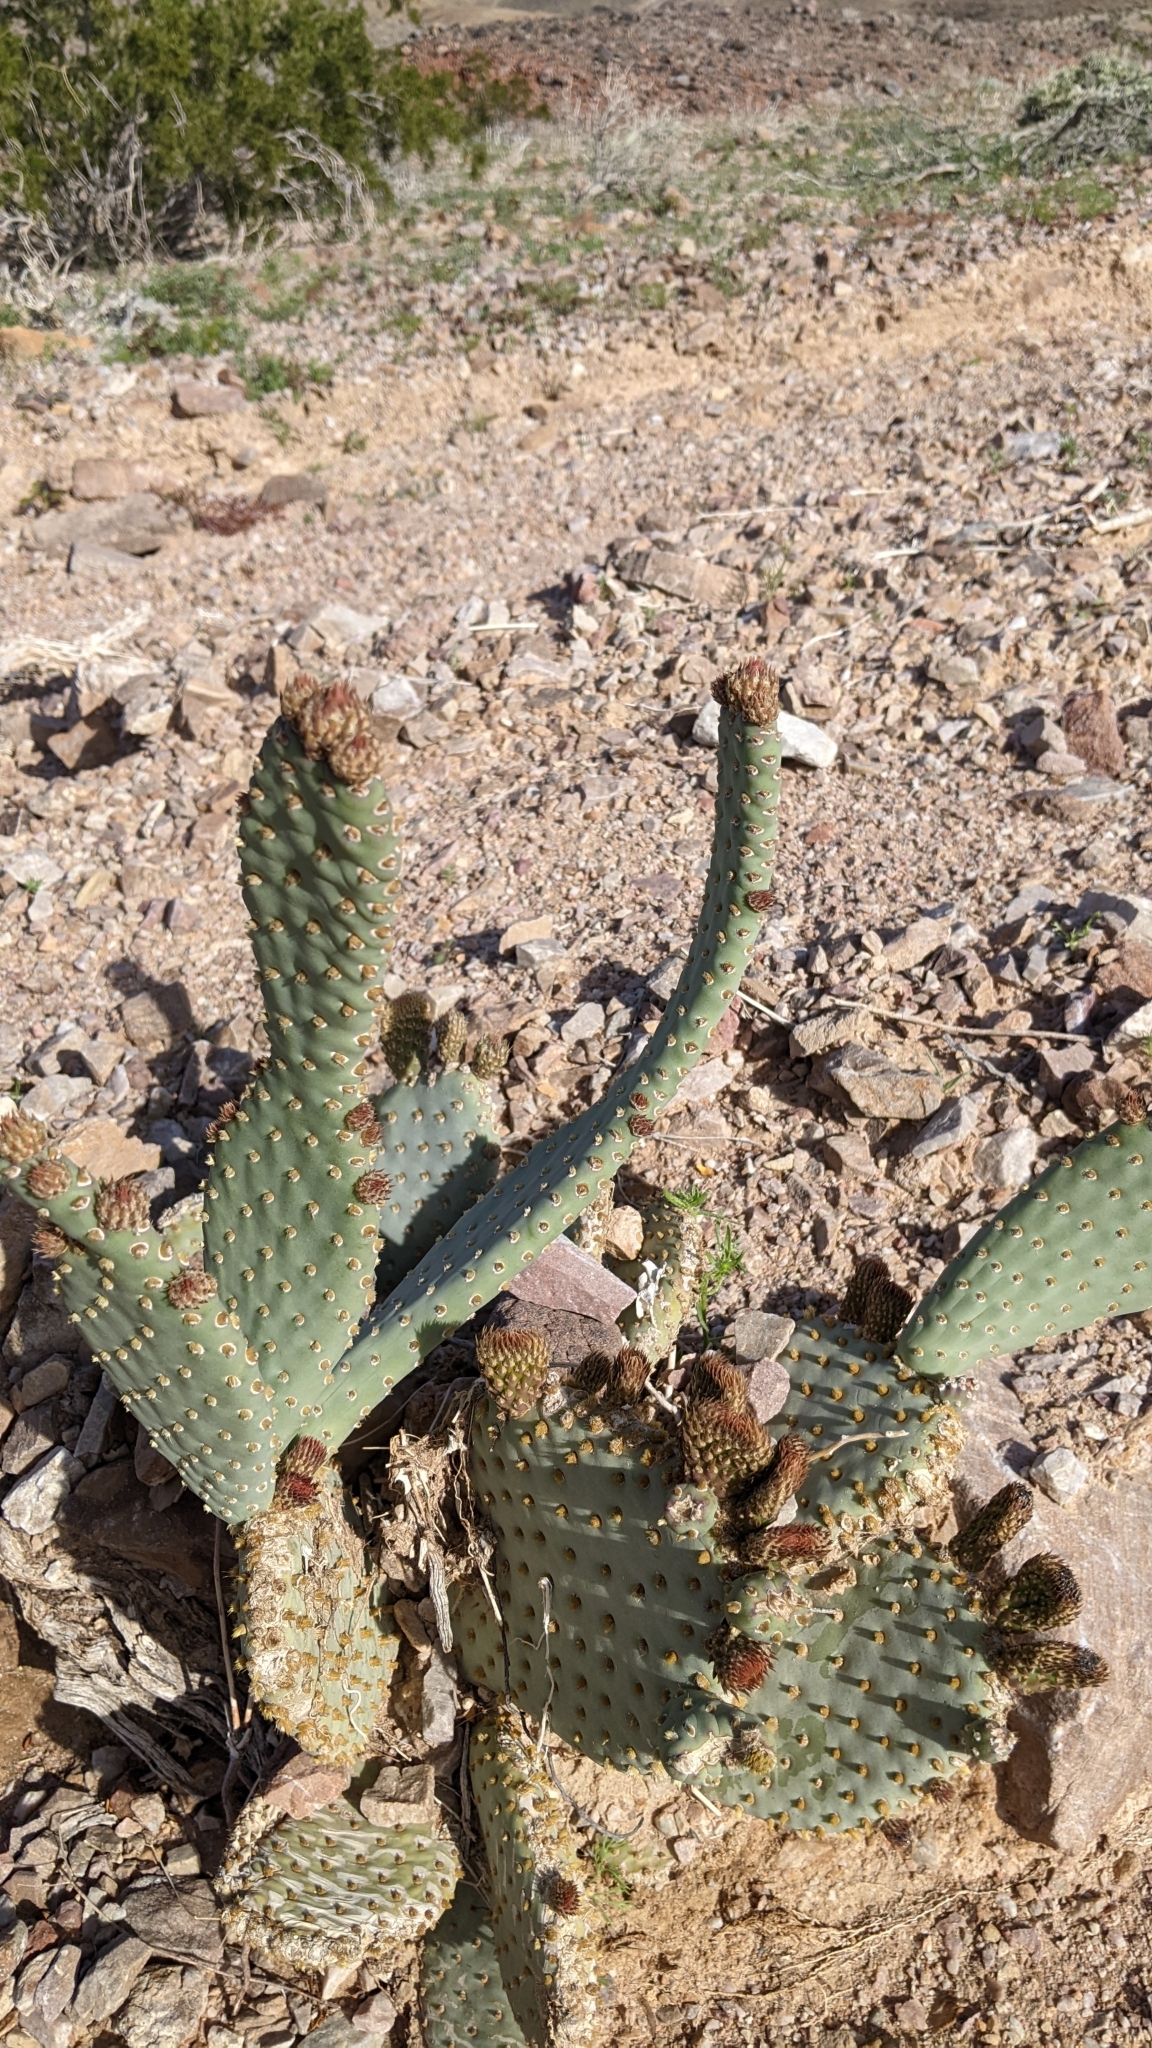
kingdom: Plantae
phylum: Tracheophyta
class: Magnoliopsida
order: Caryophyllales
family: Cactaceae
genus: Opuntia
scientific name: Opuntia basilaris
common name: Beavertail prickly-pear
